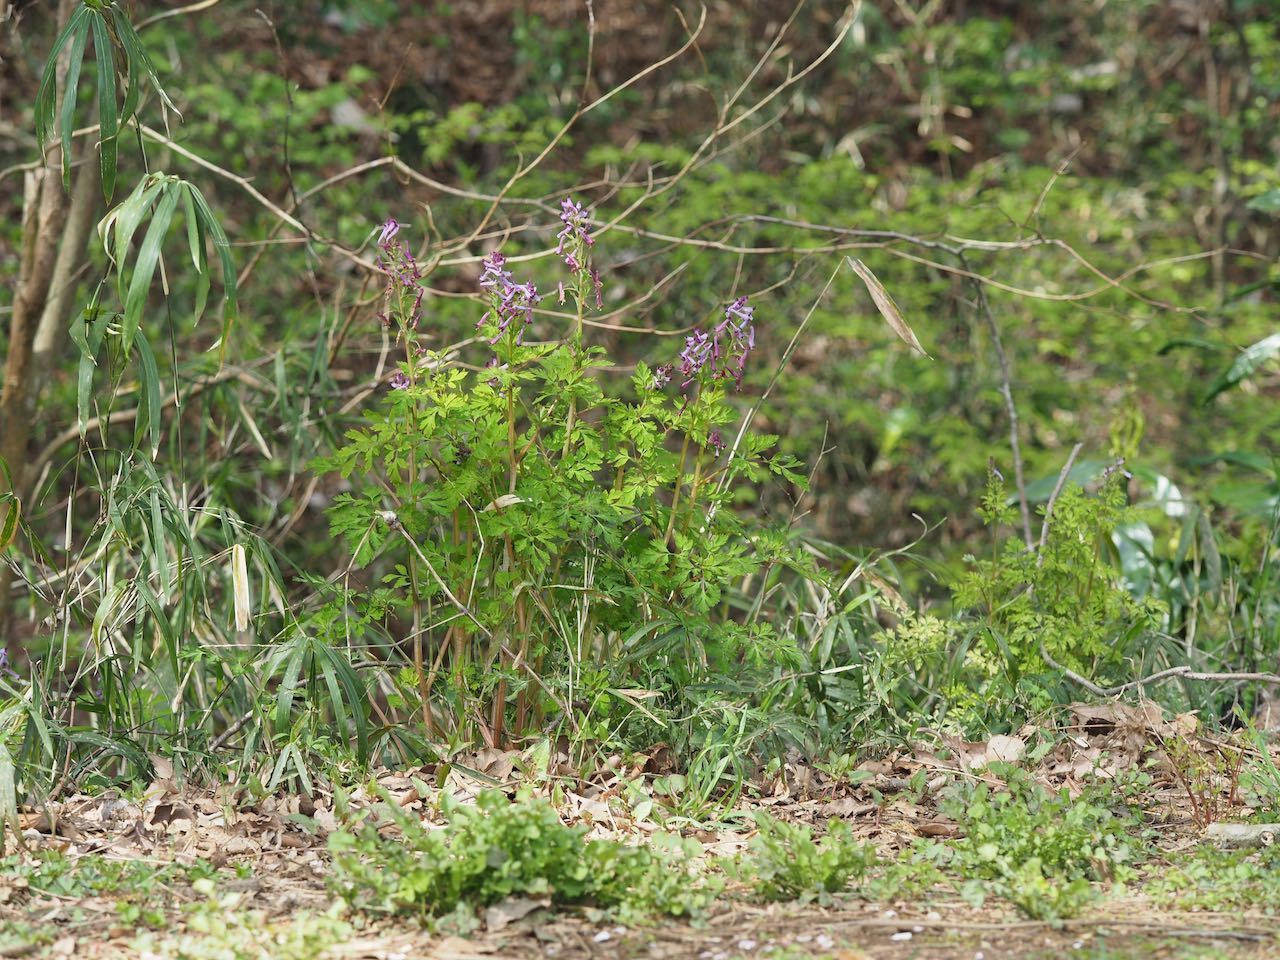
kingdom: Plantae
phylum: Tracheophyta
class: Magnoliopsida
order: Ranunculales
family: Papaveraceae
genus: Corydalis
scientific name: Corydalis incisa
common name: Incised fumewort
